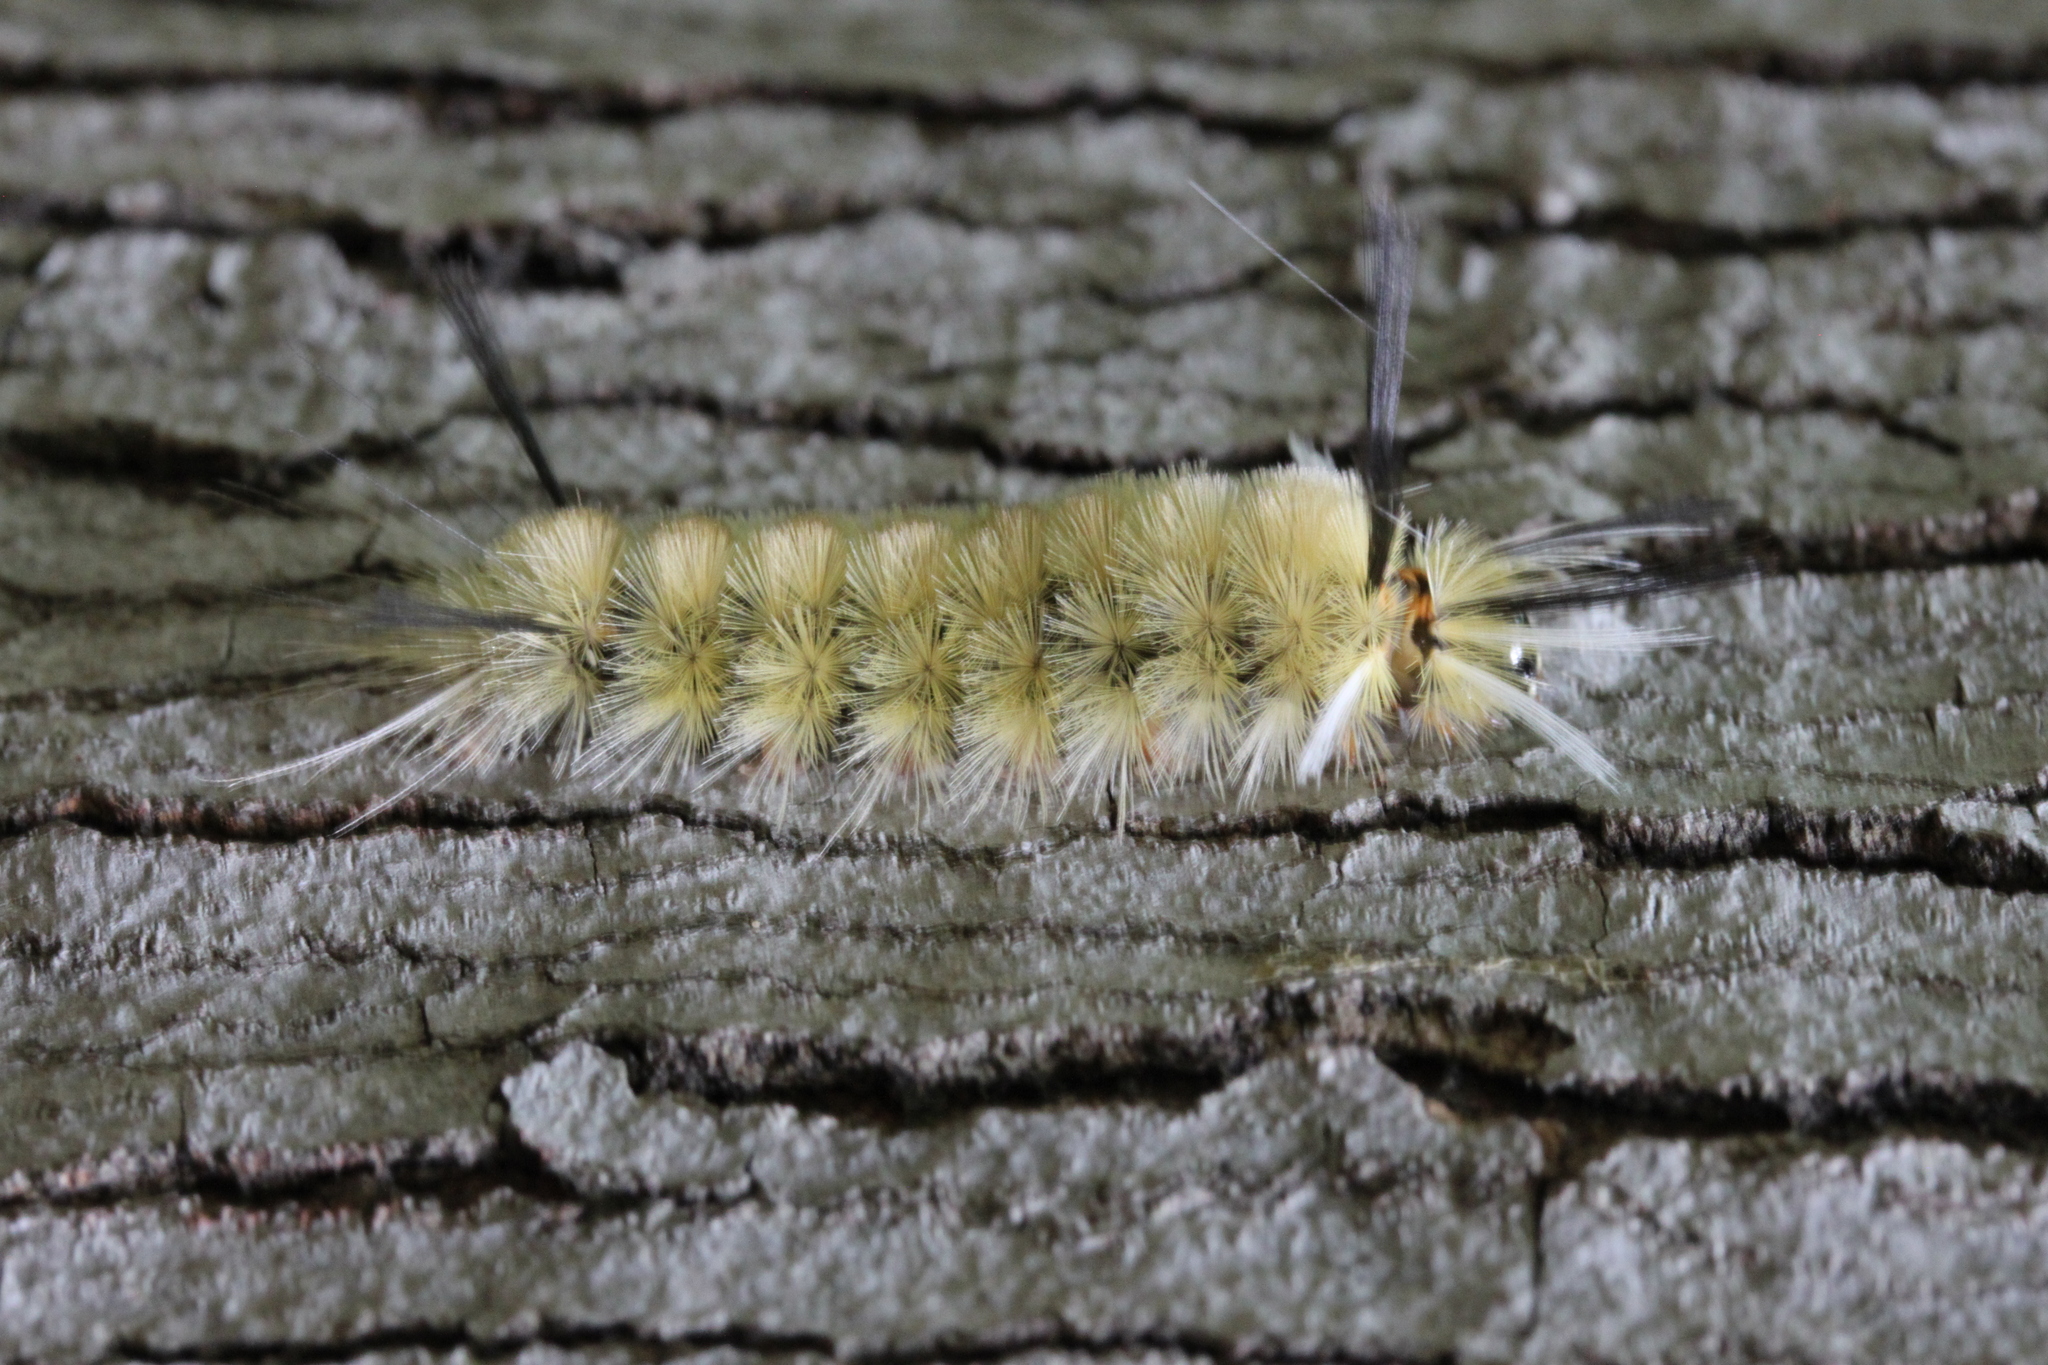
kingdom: Animalia
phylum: Arthropoda
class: Insecta
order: Lepidoptera
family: Erebidae
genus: Halysidota
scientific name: Halysidota tessellaris
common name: Banded tussock moth
